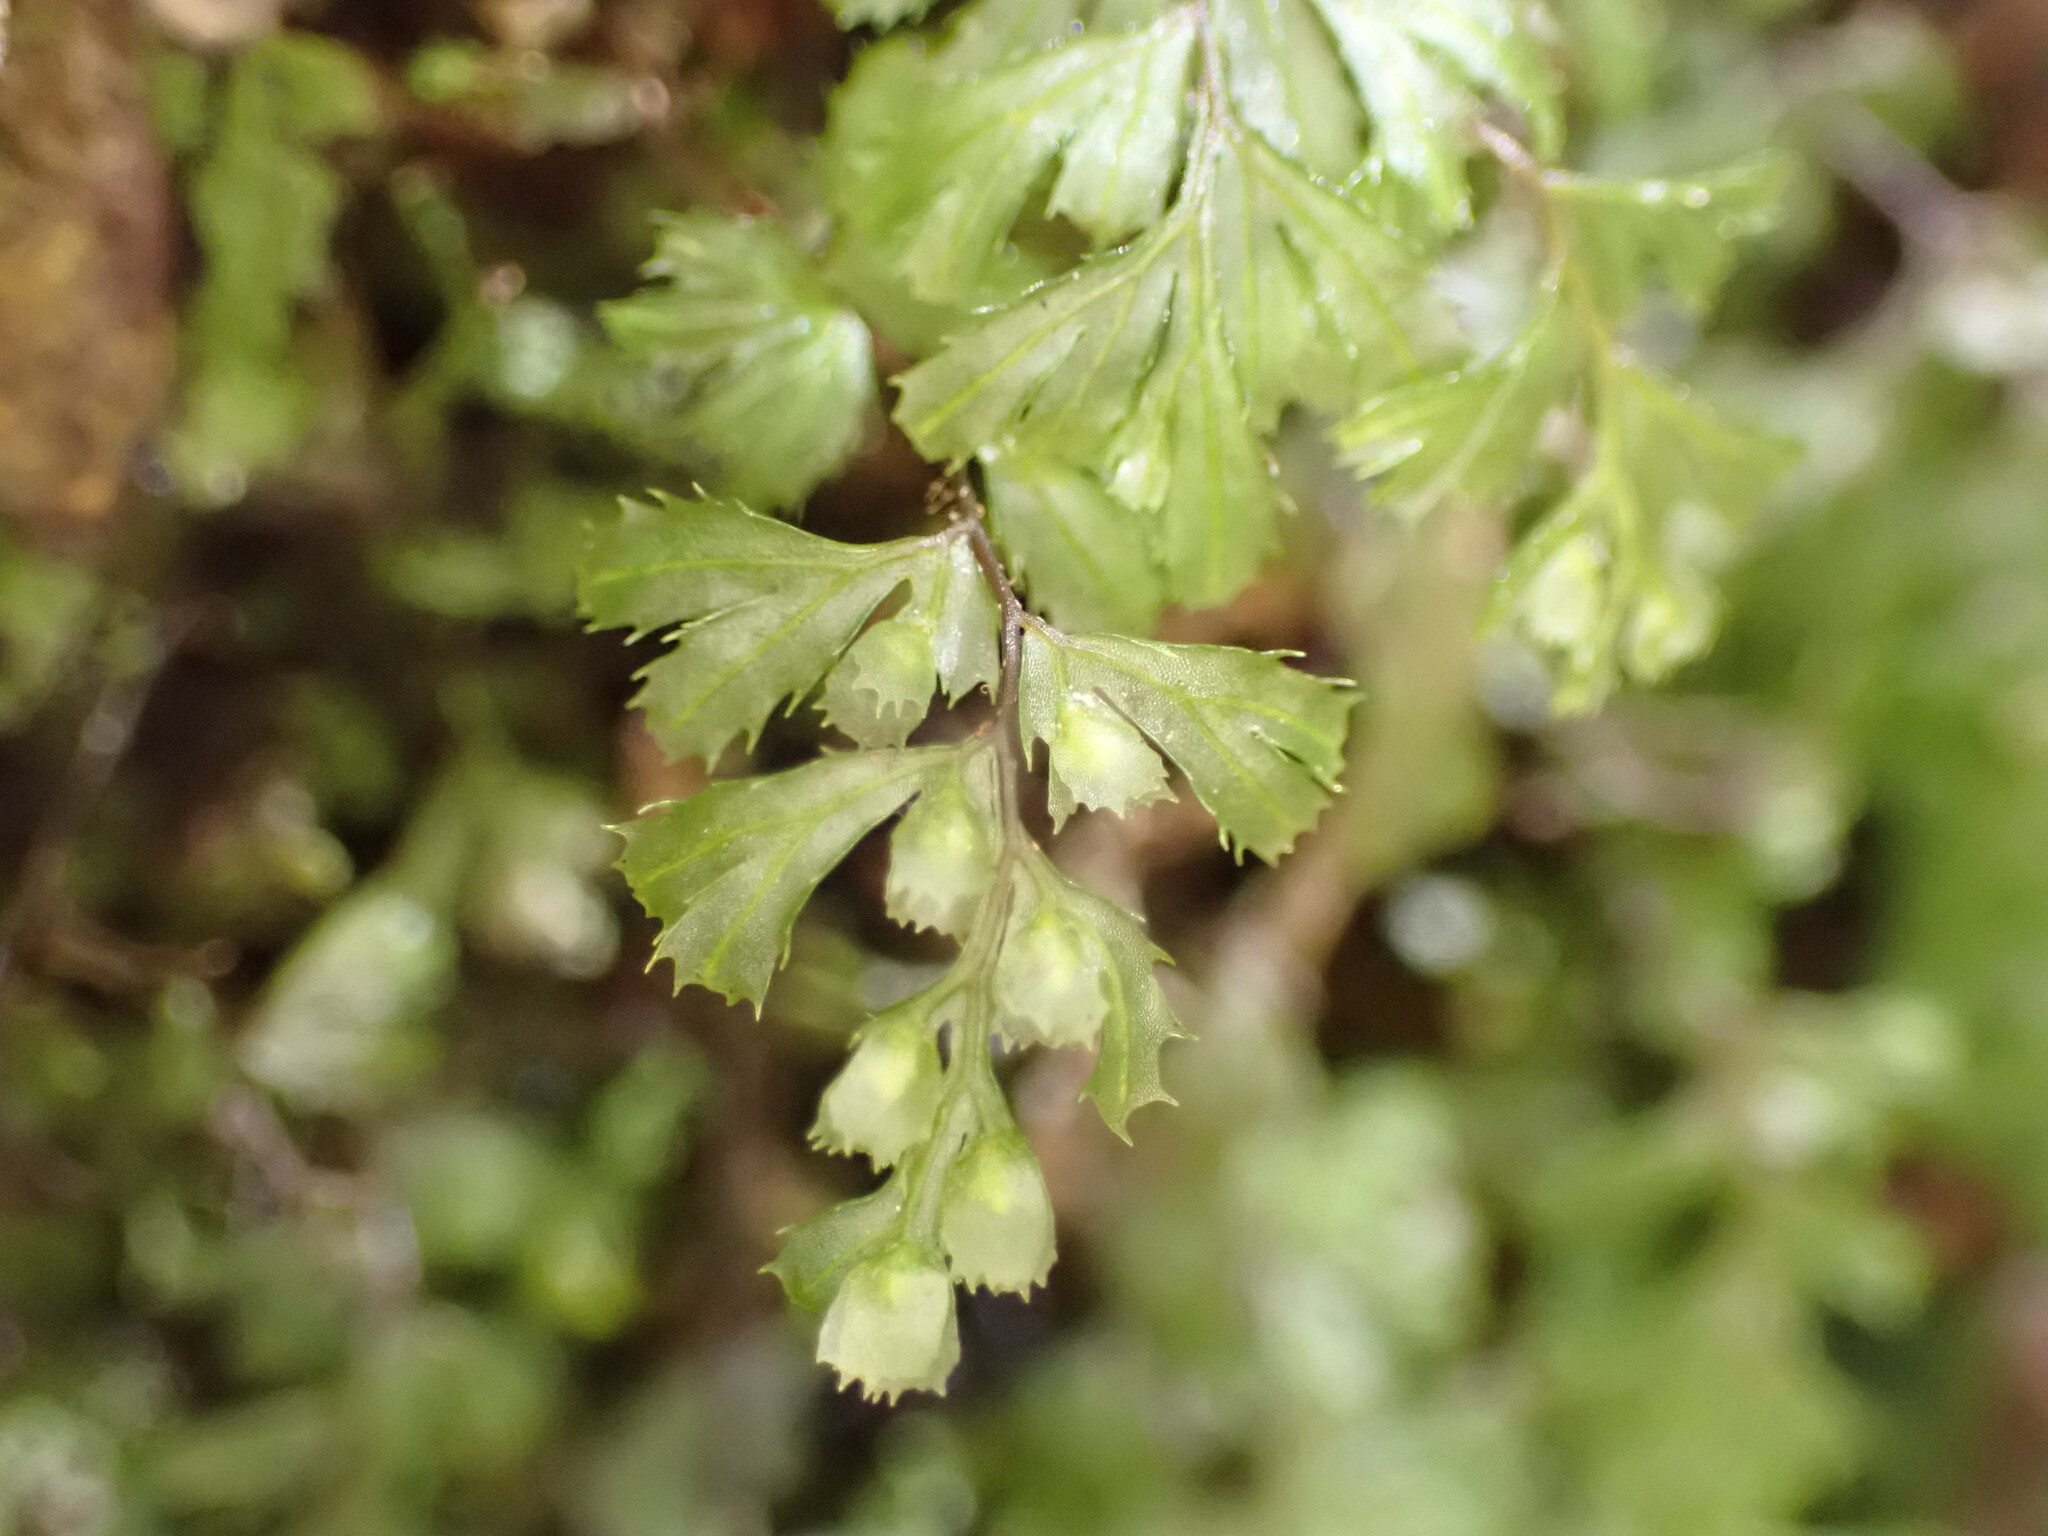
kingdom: Plantae
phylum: Tracheophyta
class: Polypodiopsida
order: Hymenophyllales
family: Hymenophyllaceae
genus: Hymenophyllum
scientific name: Hymenophyllum revolutum
